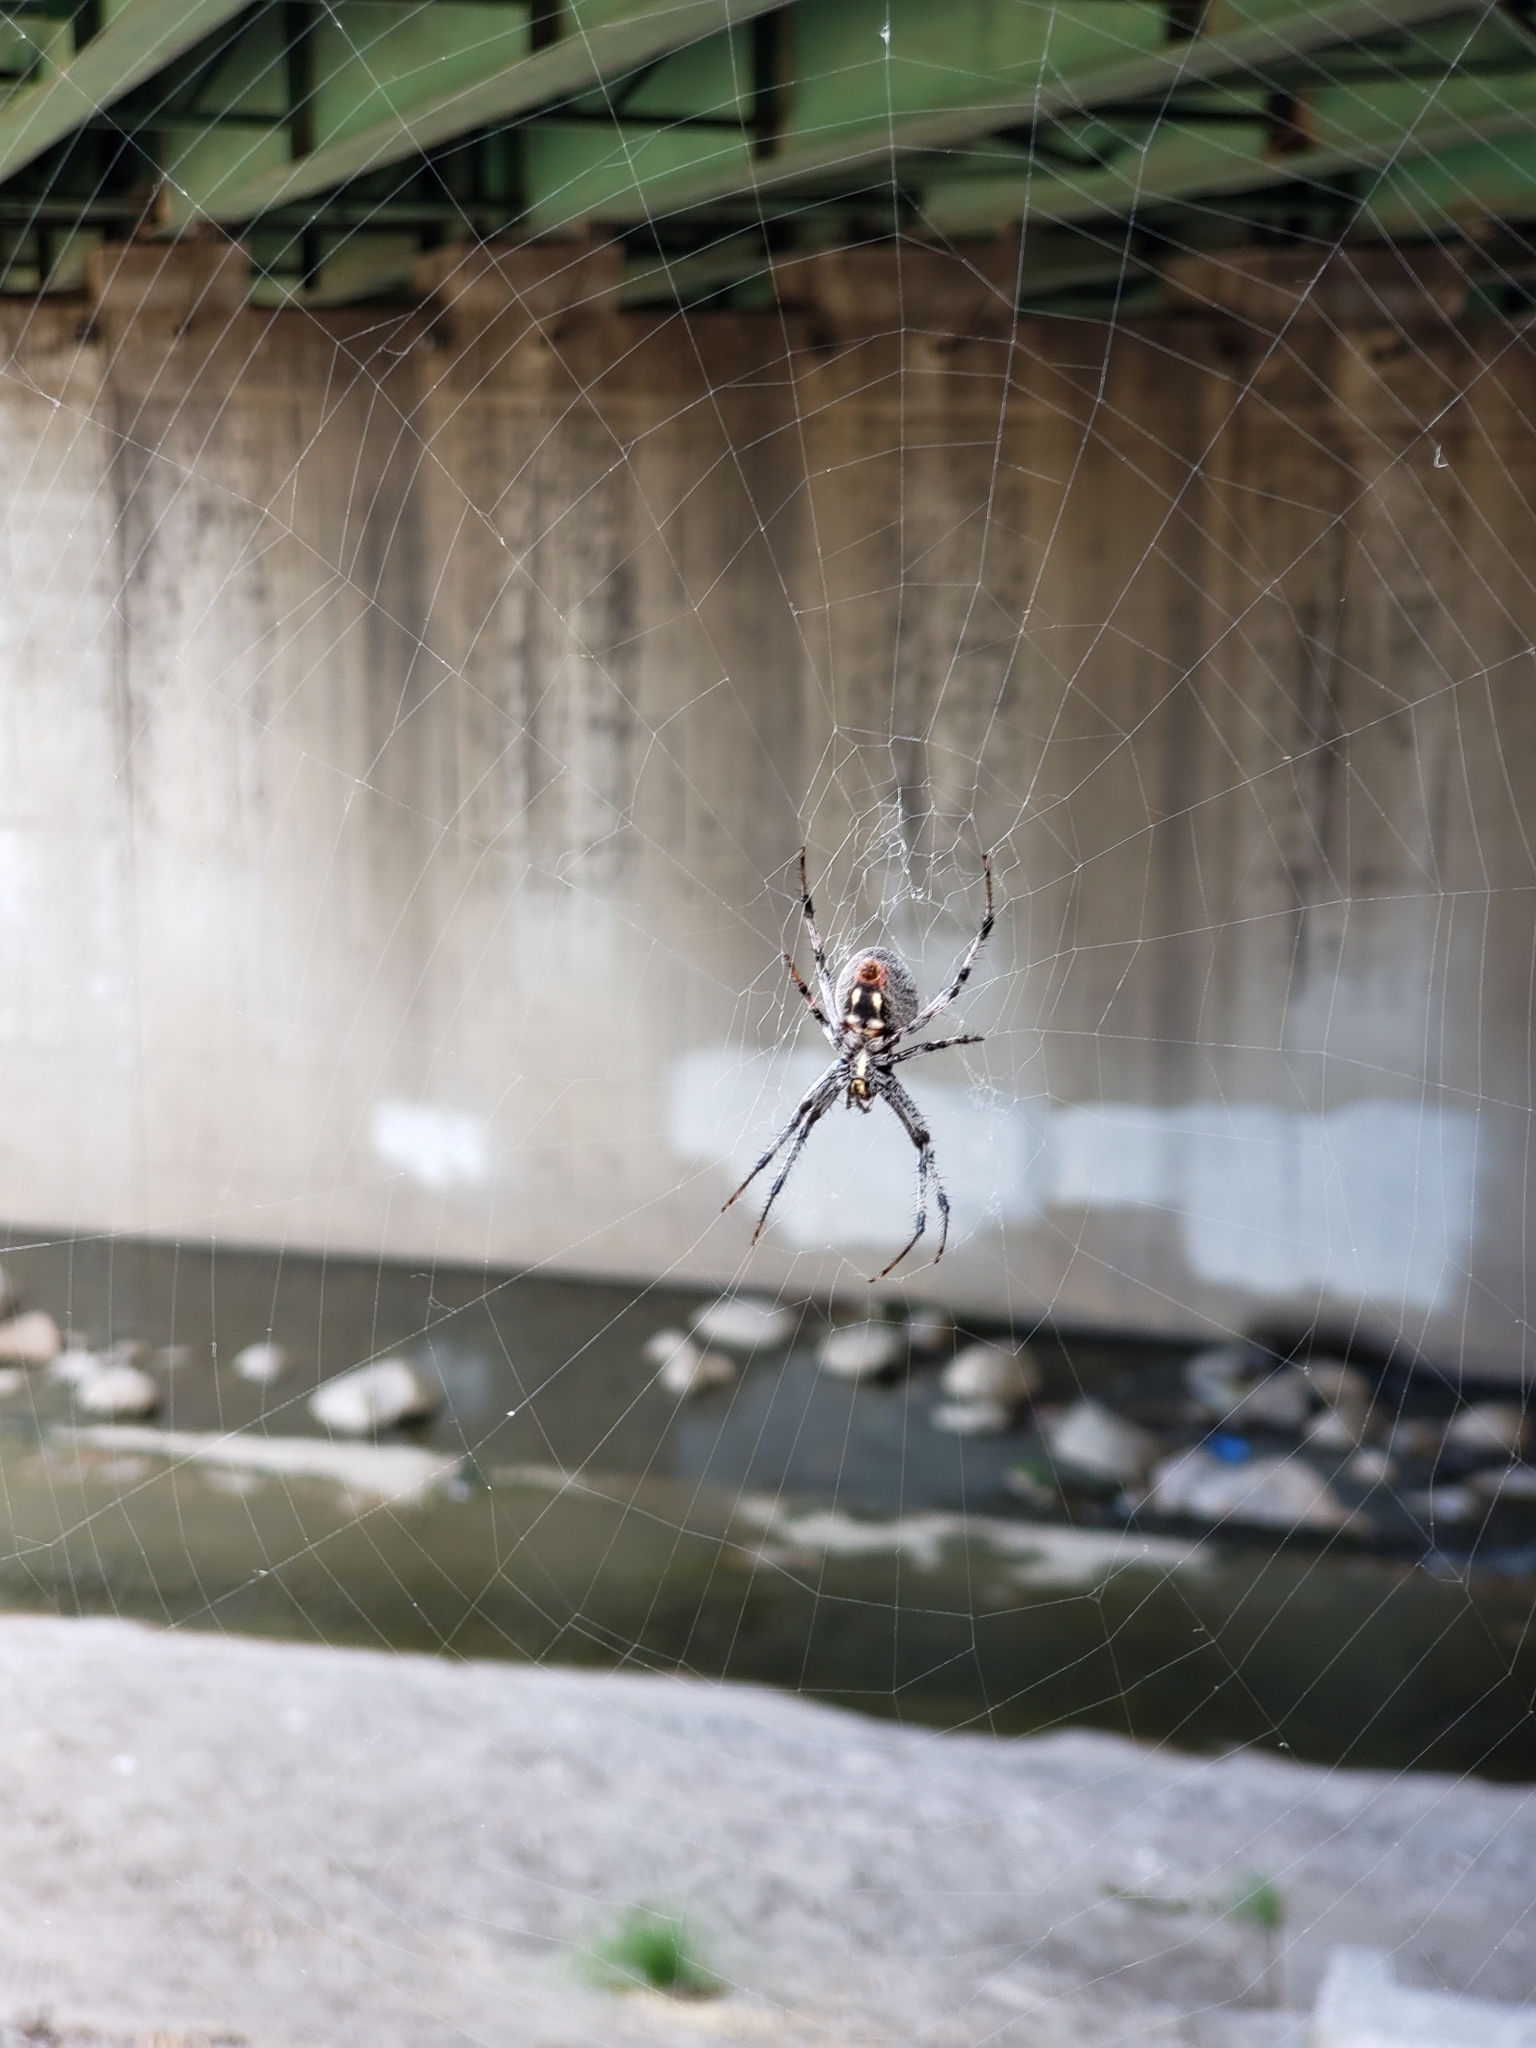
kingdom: Animalia
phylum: Arthropoda
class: Arachnida
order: Araneae
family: Araneidae
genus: Neoscona
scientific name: Neoscona oaxacensis
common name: Orb weavers
